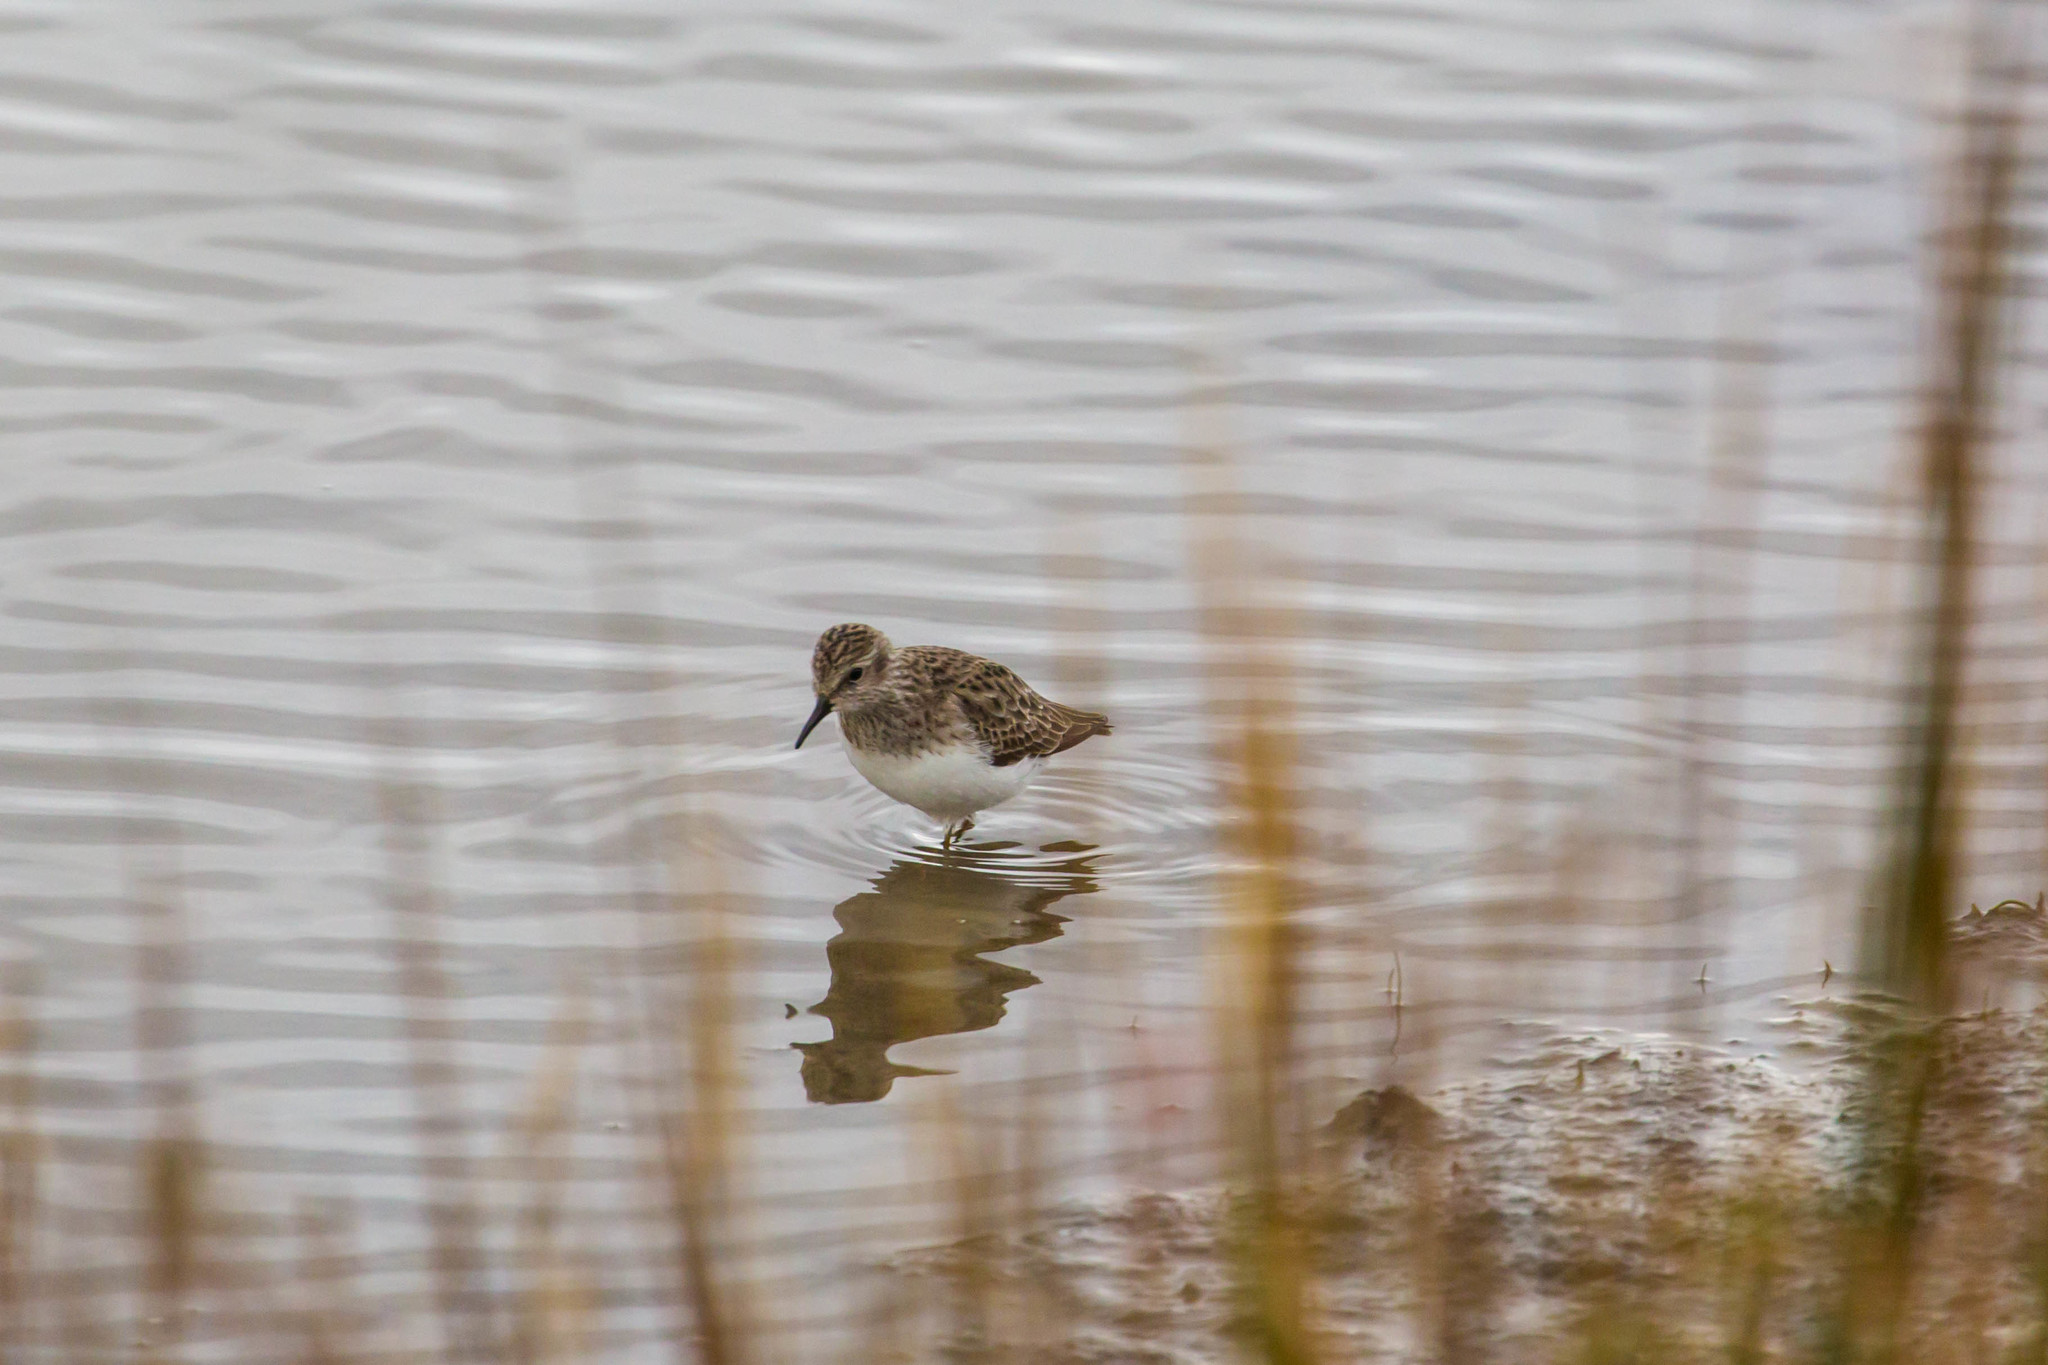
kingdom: Animalia
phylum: Chordata
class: Aves
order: Charadriiformes
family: Scolopacidae
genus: Calidris
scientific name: Calidris minutilla
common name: Least sandpiper
